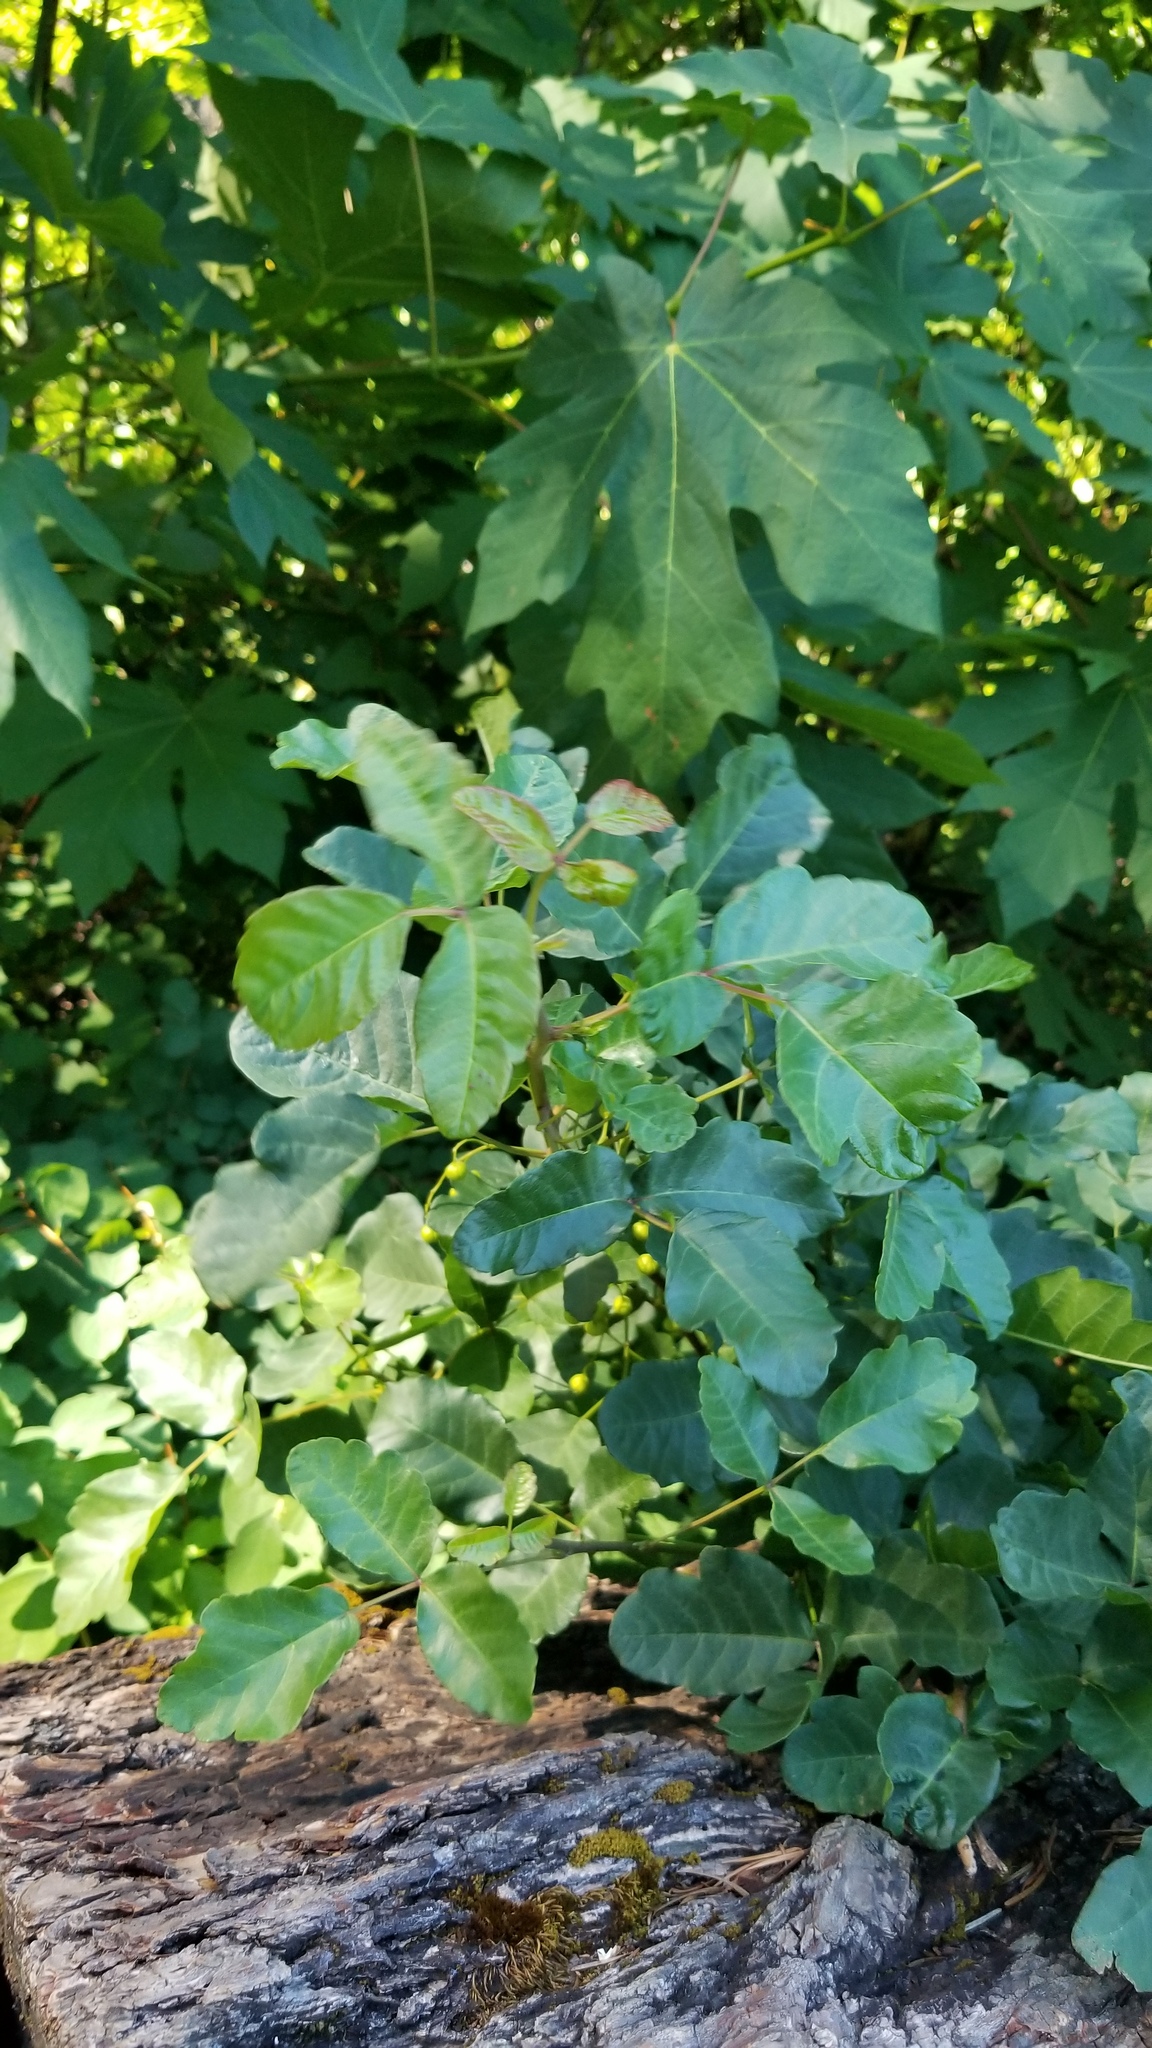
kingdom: Plantae
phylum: Tracheophyta
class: Magnoliopsida
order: Sapindales
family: Anacardiaceae
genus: Toxicodendron
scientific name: Toxicodendron diversilobum
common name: Pacific poison-oak
